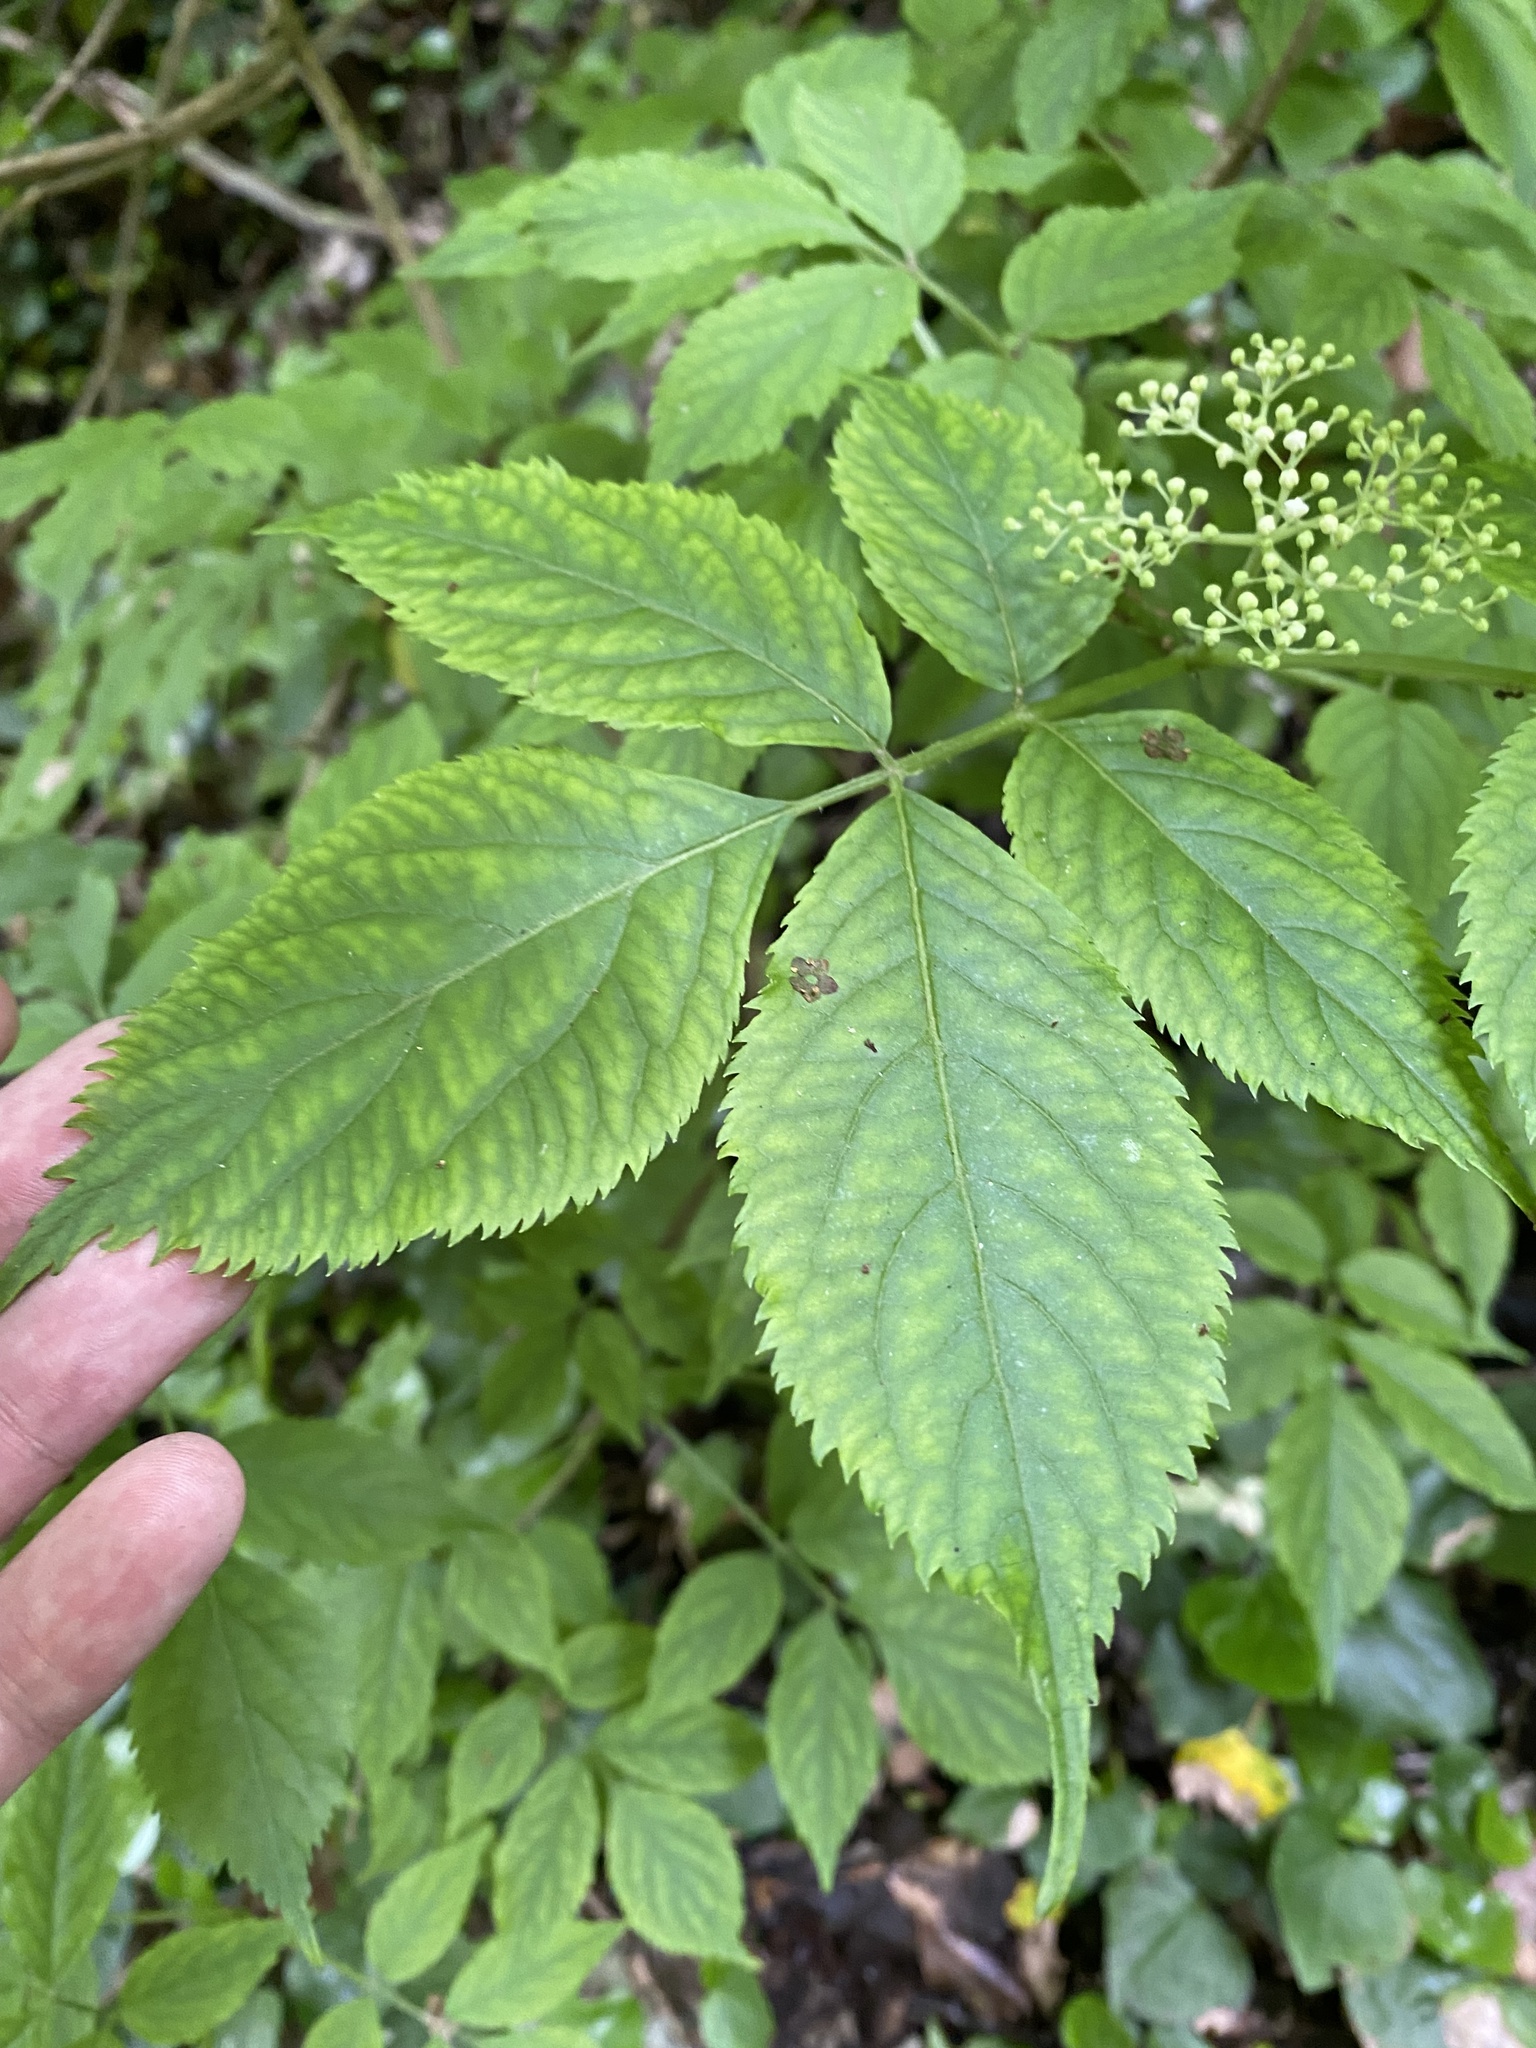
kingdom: Plantae
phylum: Tracheophyta
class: Magnoliopsida
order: Dipsacales
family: Viburnaceae
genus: Sambucus
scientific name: Sambucus nigra
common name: Elder
